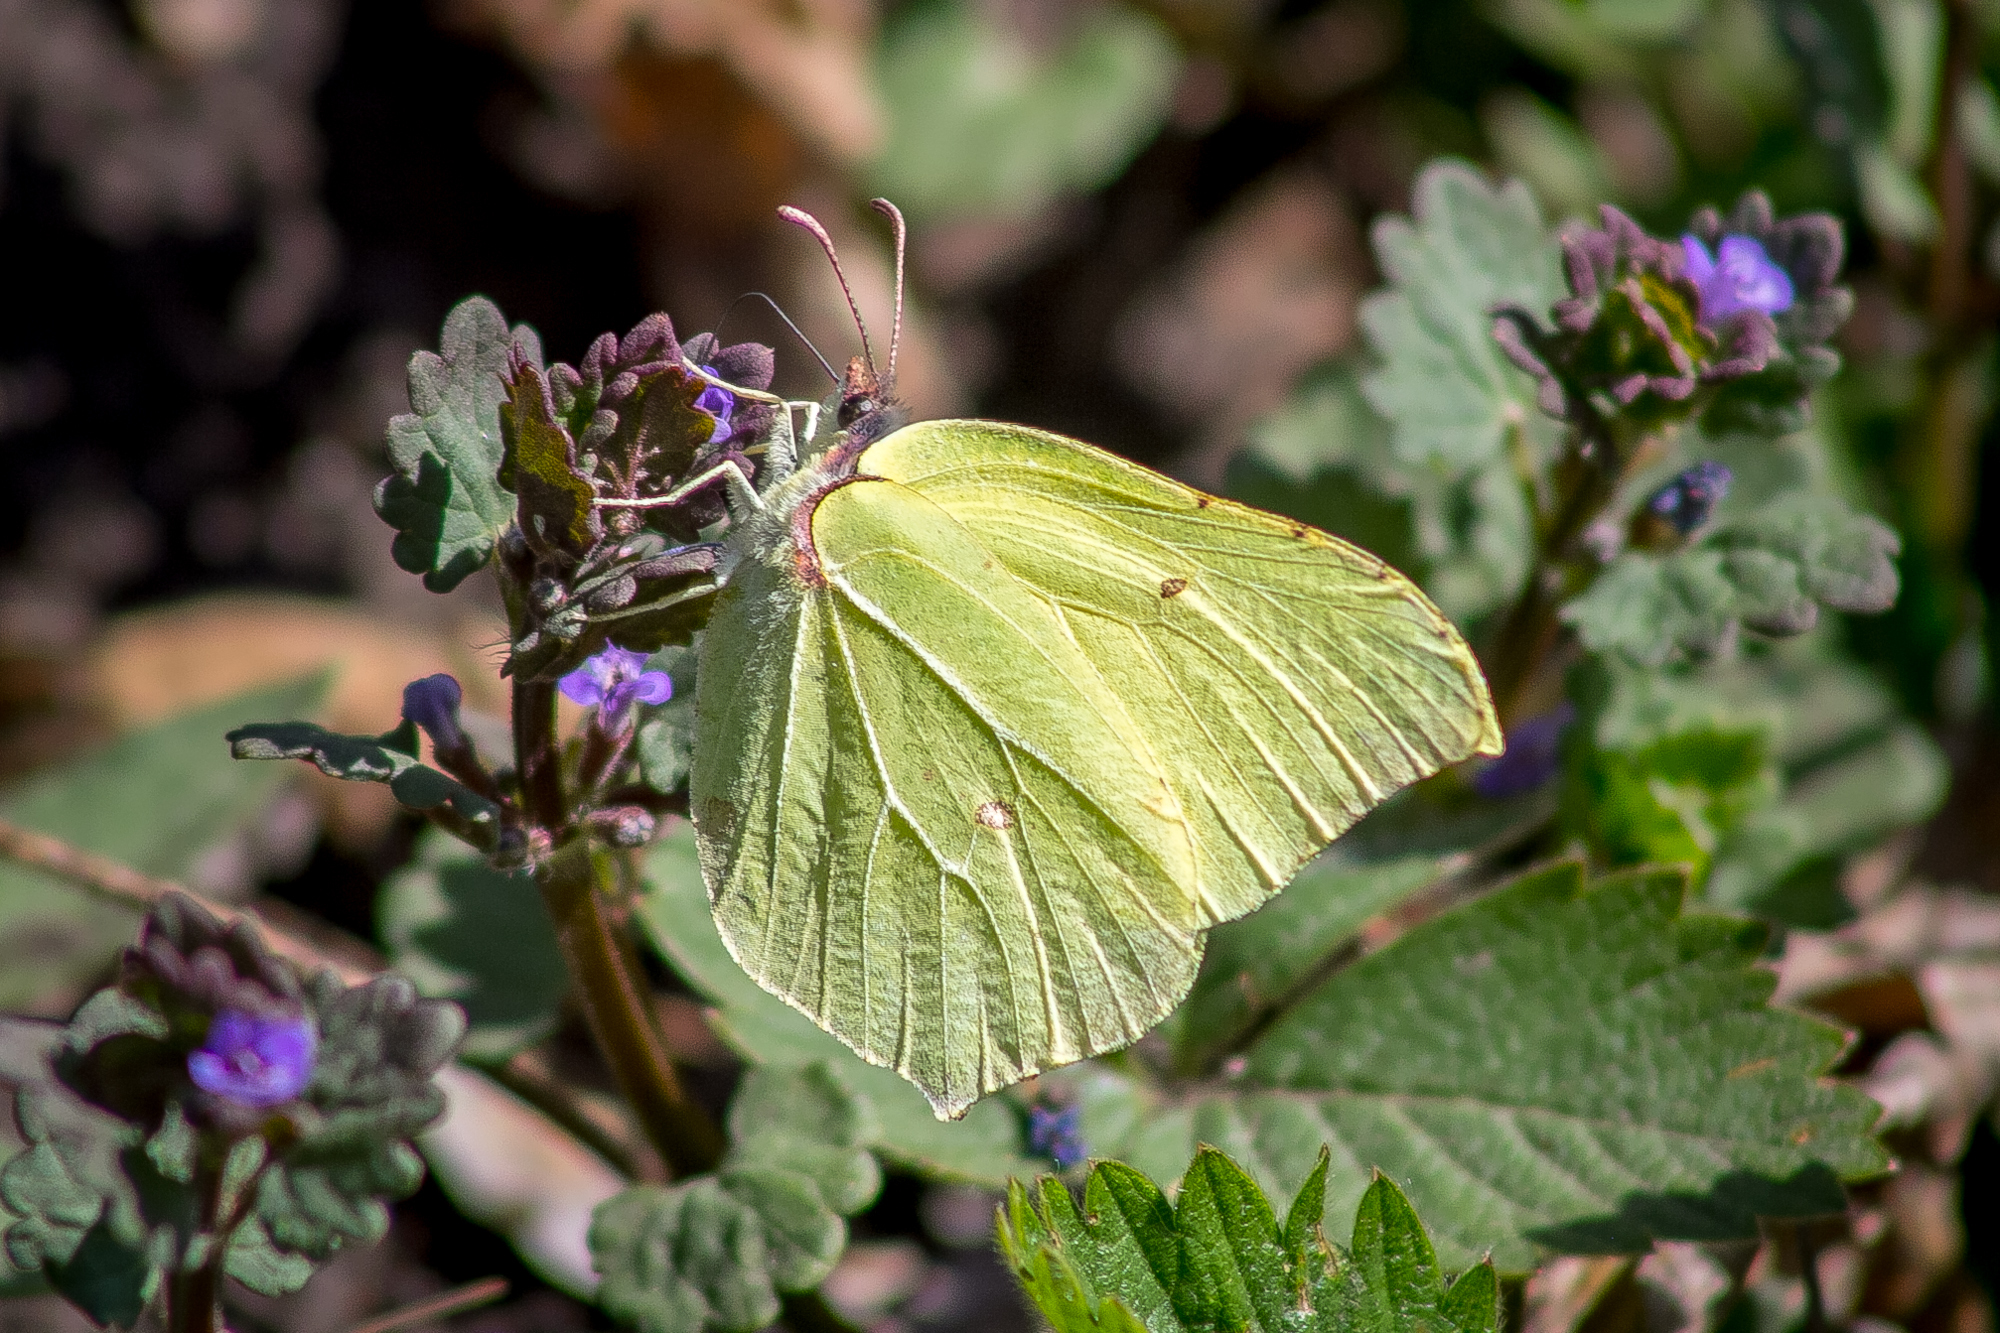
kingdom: Animalia
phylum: Arthropoda
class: Insecta
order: Lepidoptera
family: Pieridae
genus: Gonepteryx
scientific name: Gonepteryx rhamni
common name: Brimstone
